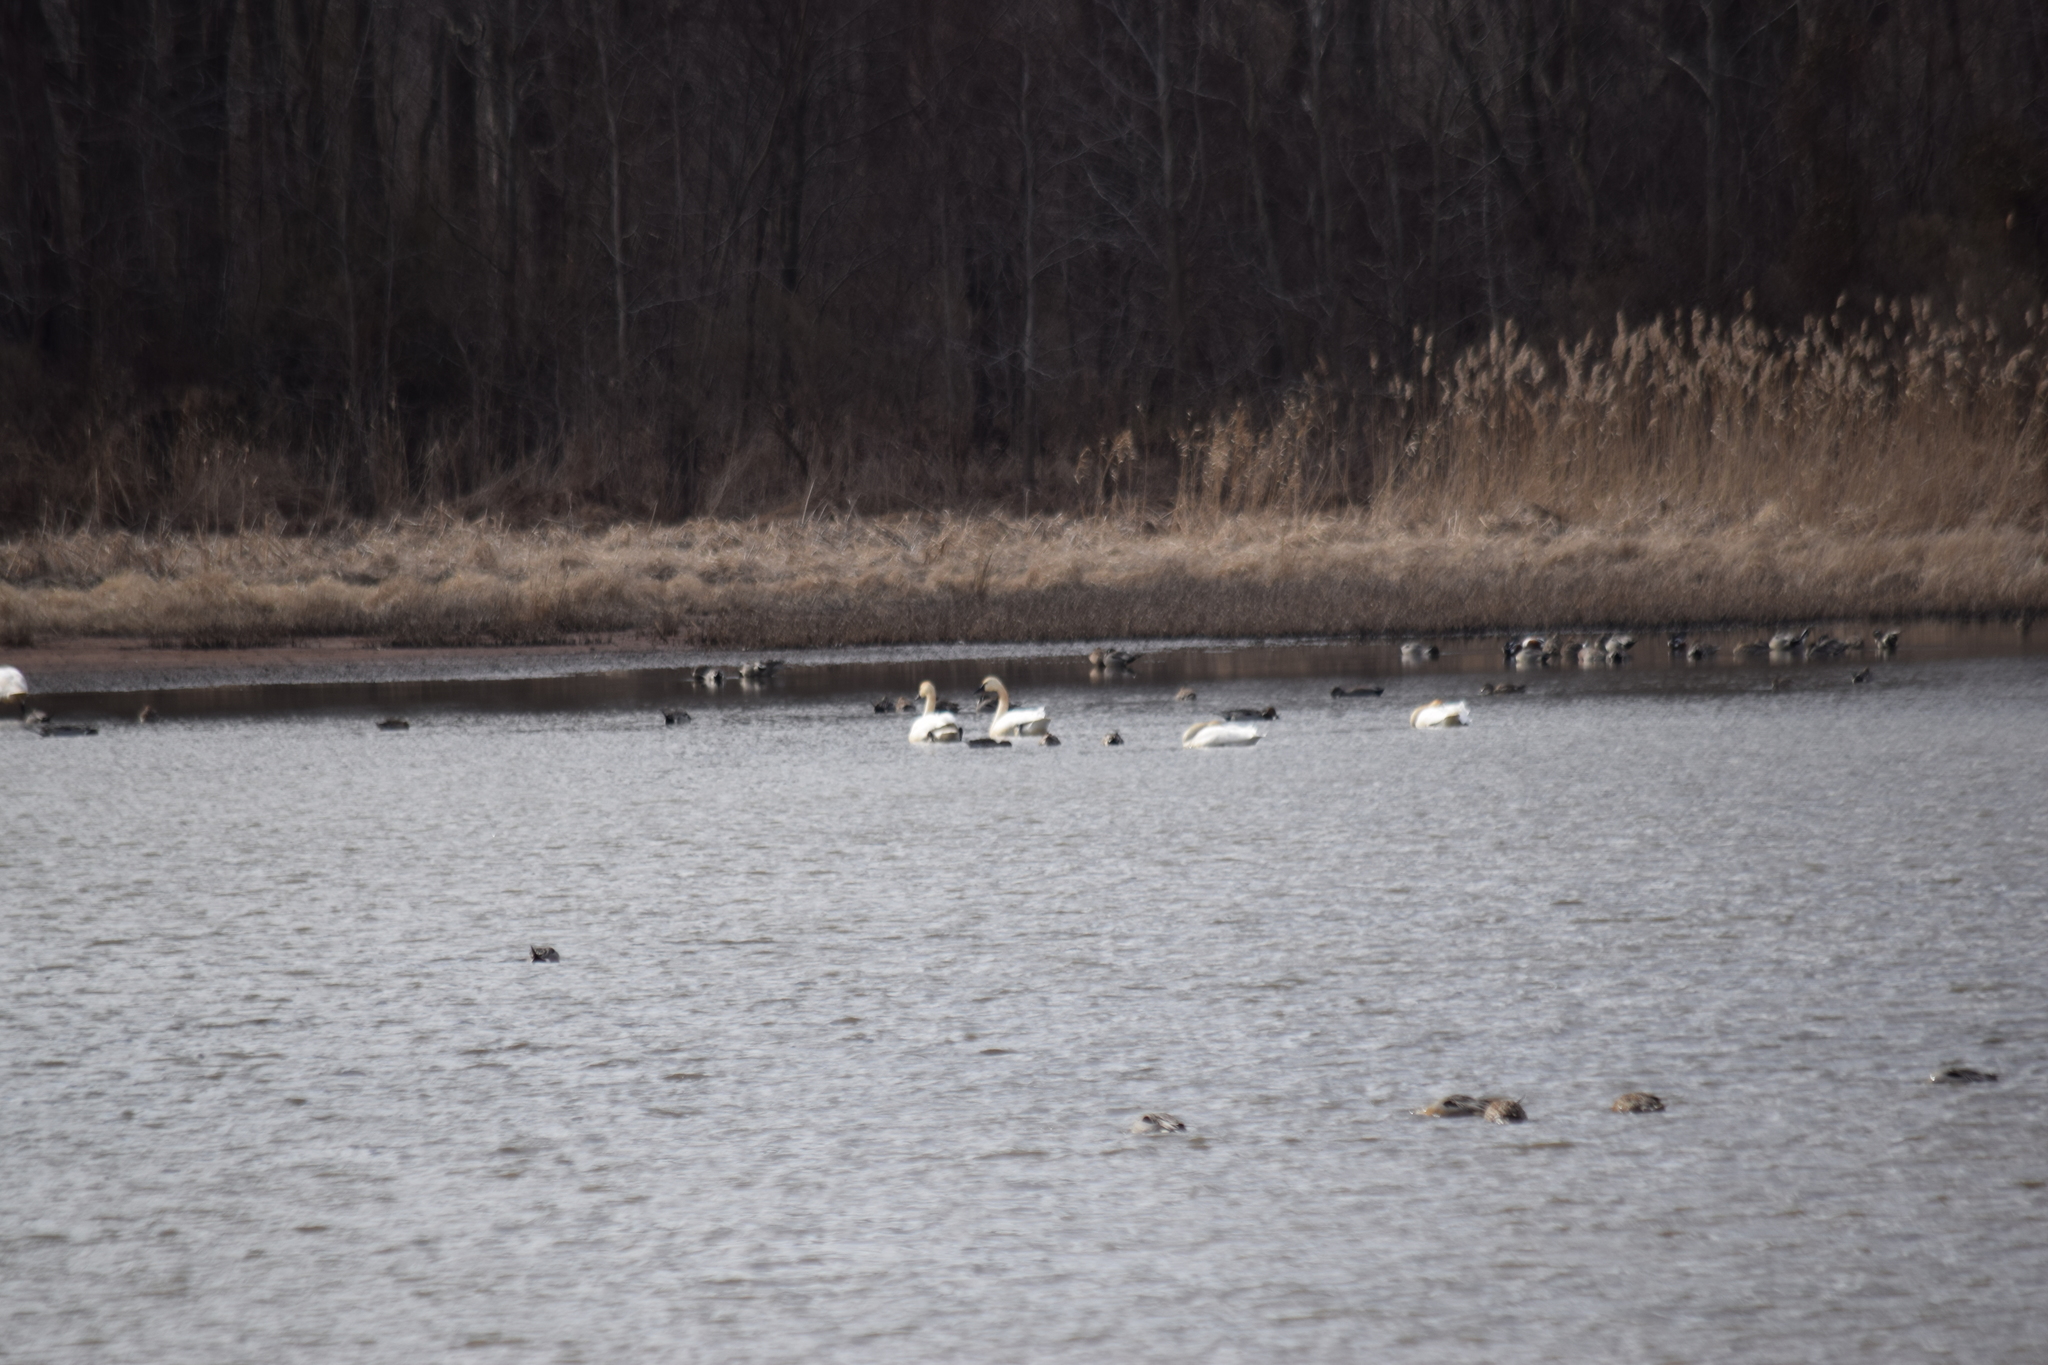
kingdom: Animalia
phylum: Chordata
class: Aves
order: Anseriformes
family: Anatidae
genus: Cygnus
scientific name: Cygnus columbianus
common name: Tundra swan
